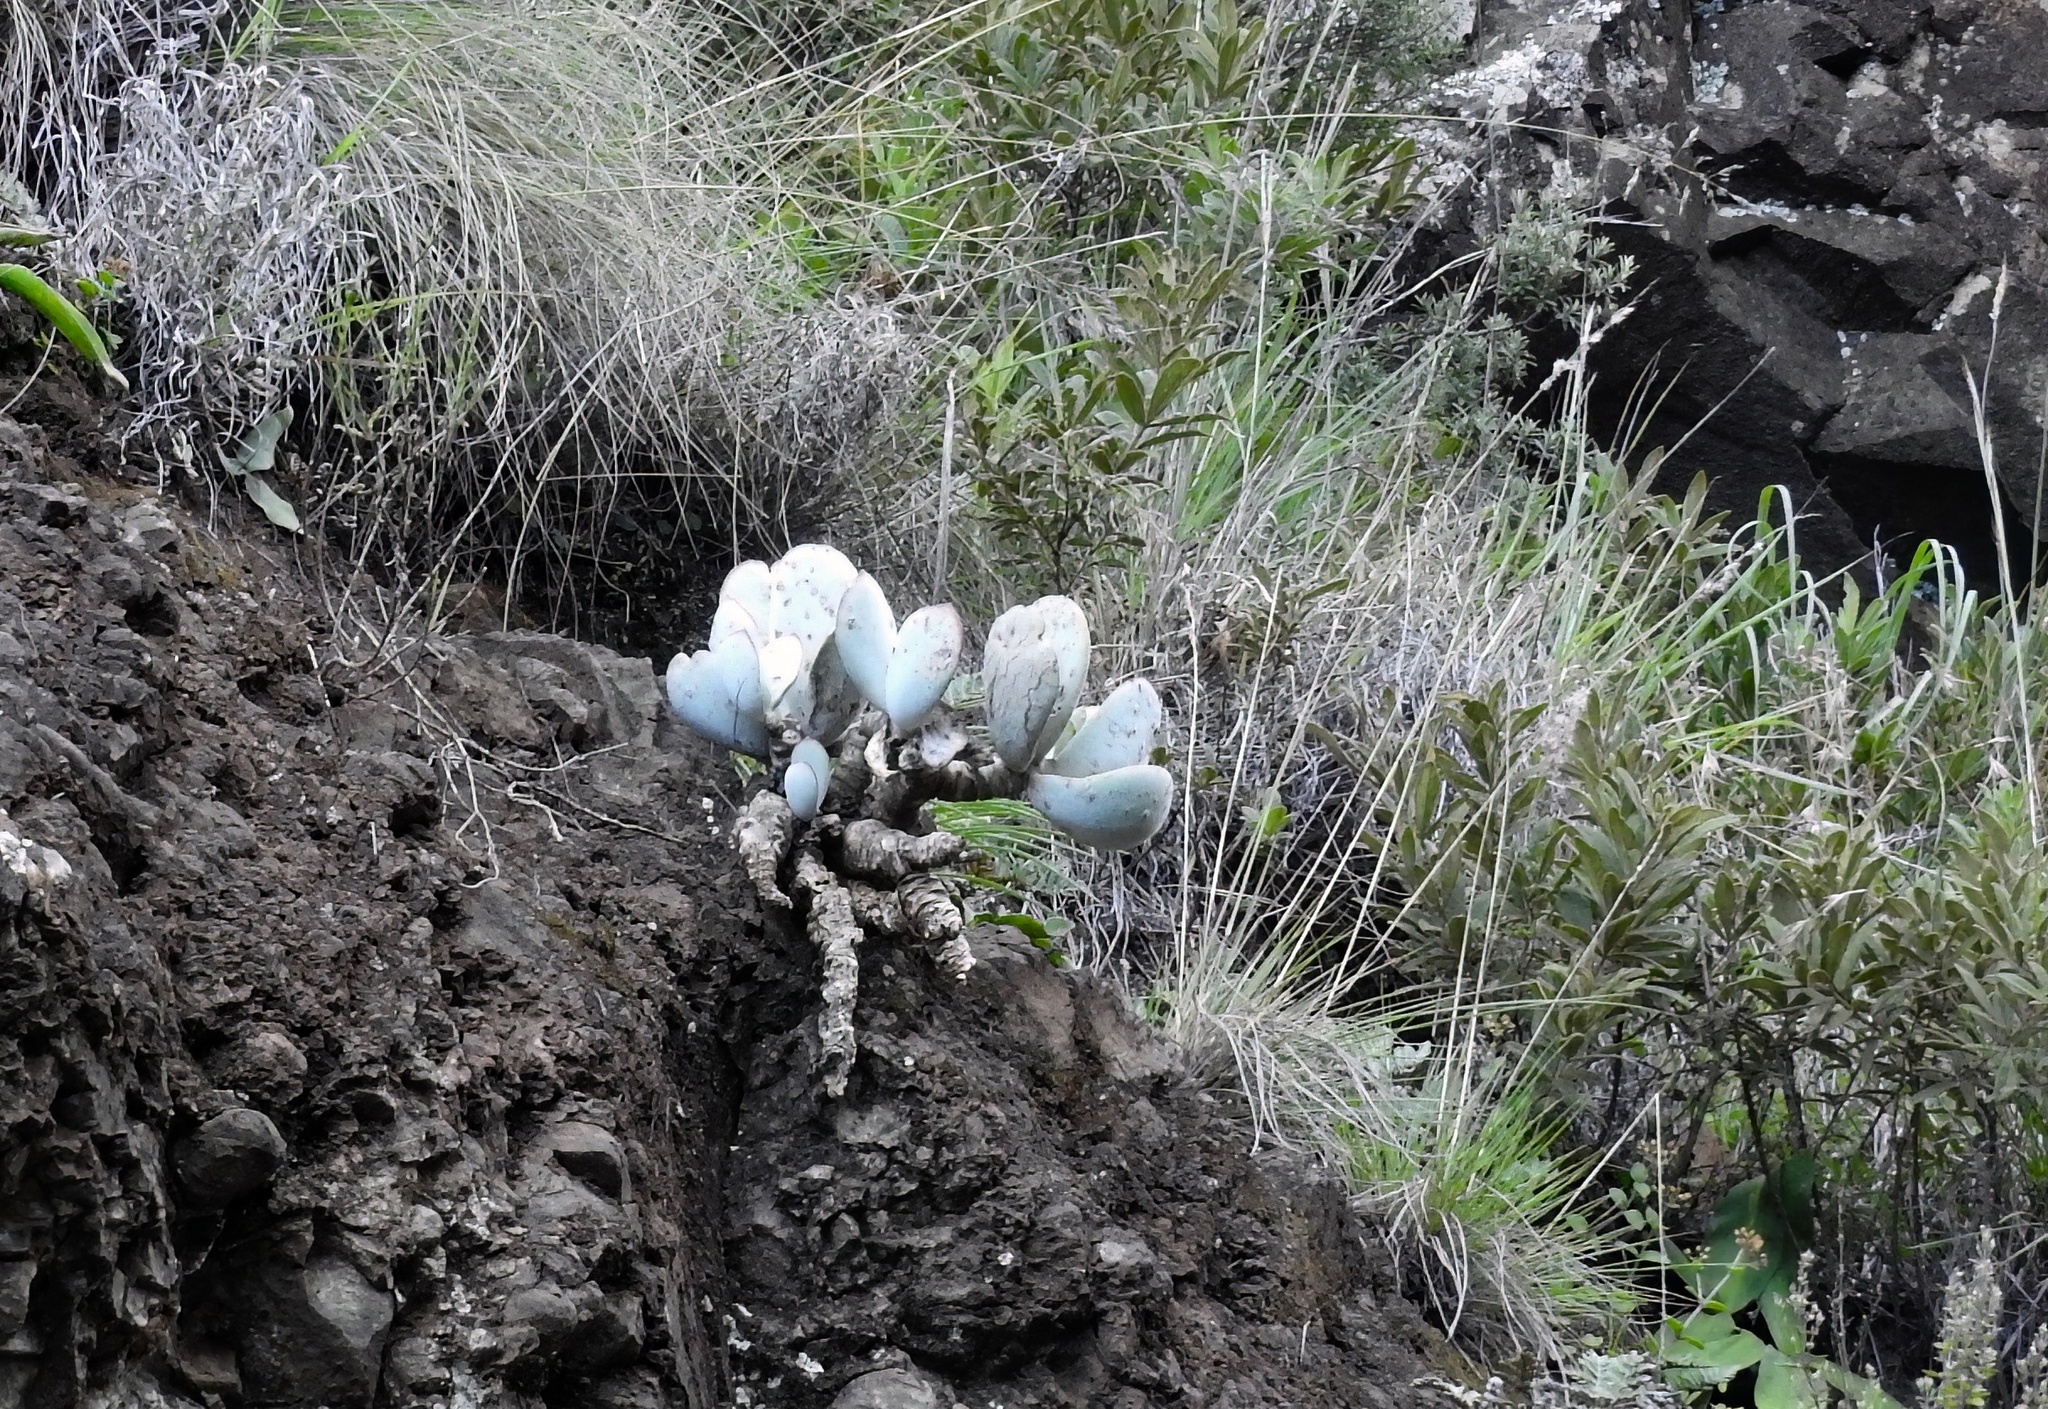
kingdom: Plantae
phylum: Tracheophyta
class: Magnoliopsida
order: Saxifragales
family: Crassulaceae
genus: Cotyledon
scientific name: Cotyledon orbiculata
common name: Pig's ear
